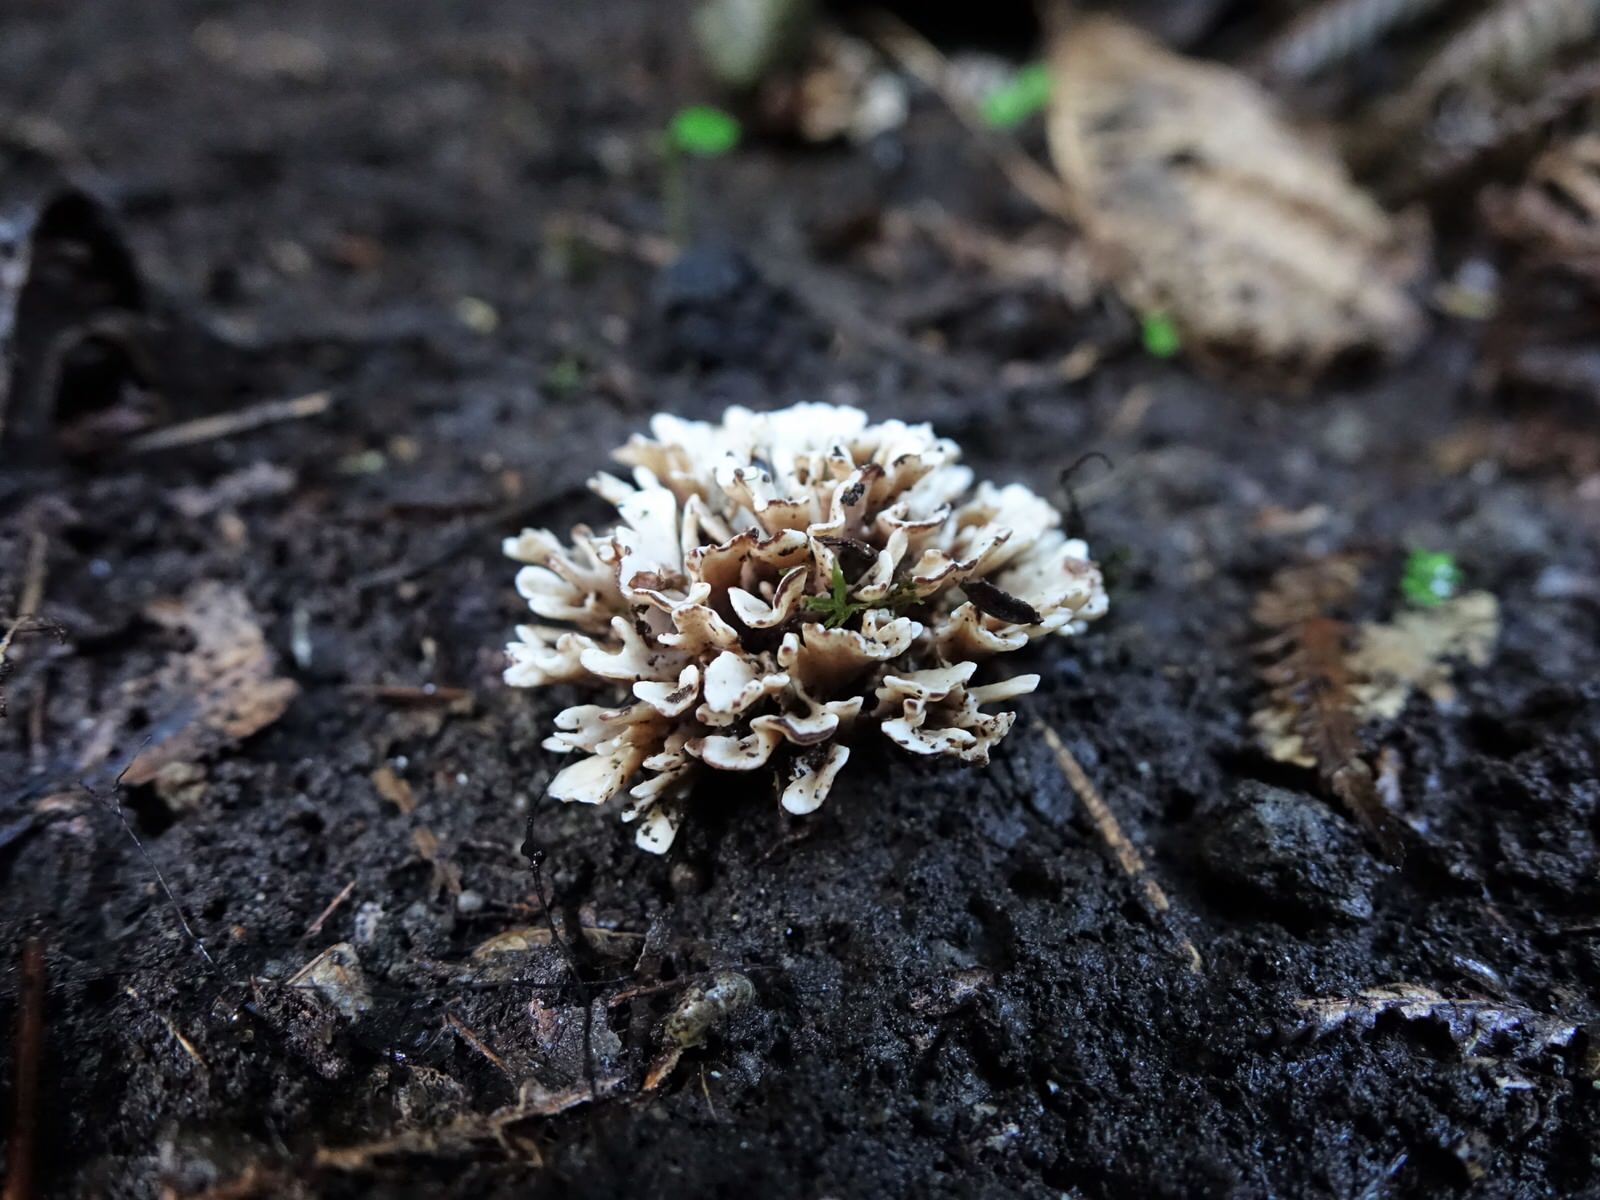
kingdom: Fungi
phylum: Basidiomycota
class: Agaricomycetes
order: Stereopsidales
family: Stereopsidaceae
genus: Stereopsis
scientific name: Stereopsis hiscens
